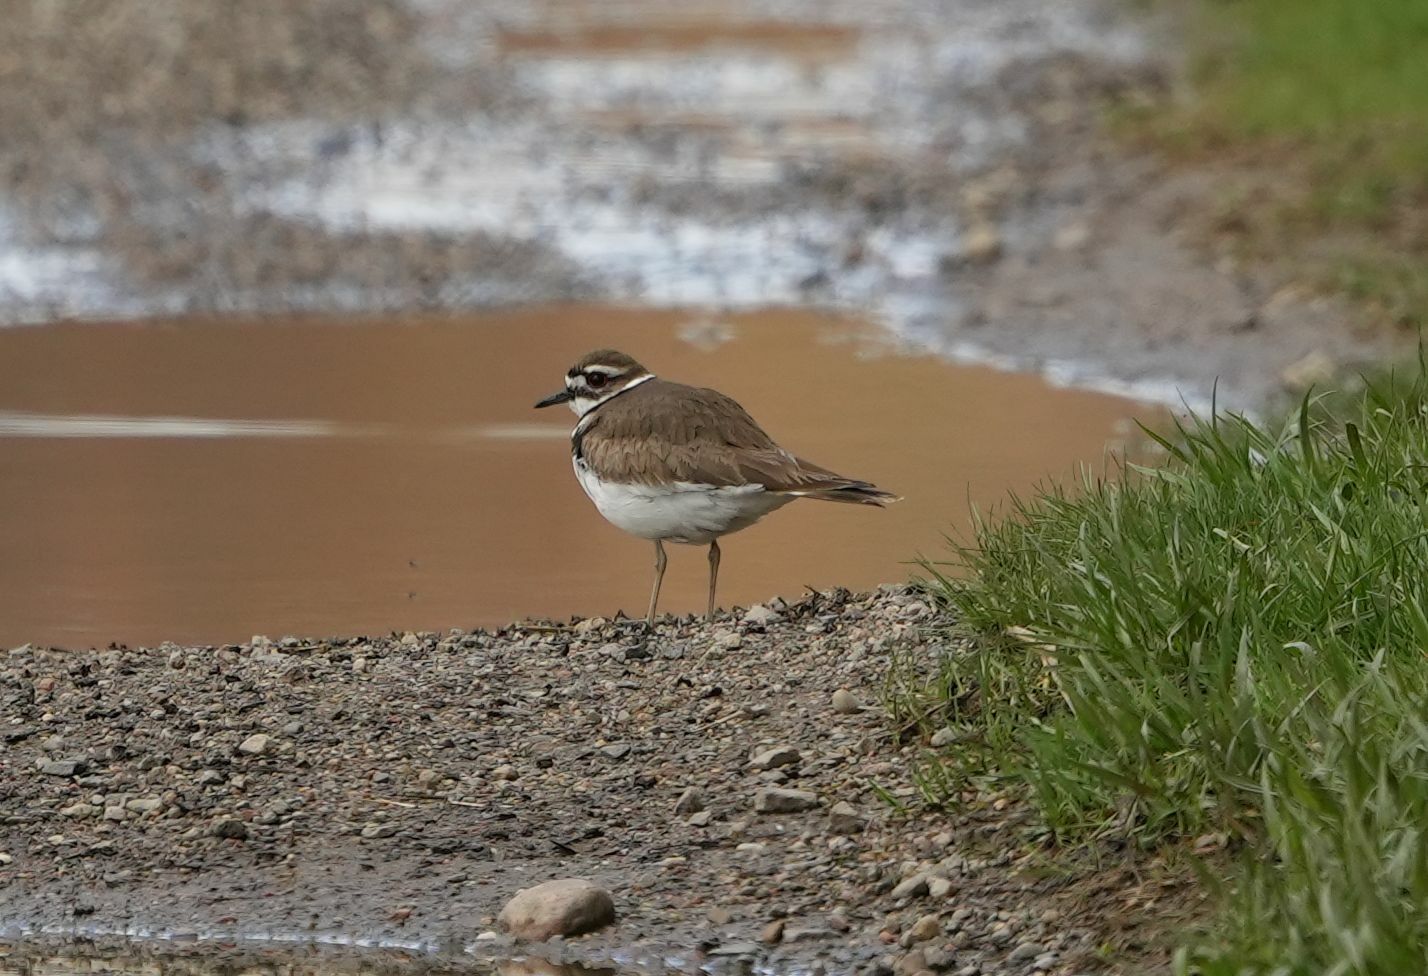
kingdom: Animalia
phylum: Chordata
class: Aves
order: Charadriiformes
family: Charadriidae
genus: Charadrius
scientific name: Charadrius vociferus
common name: Killdeer
